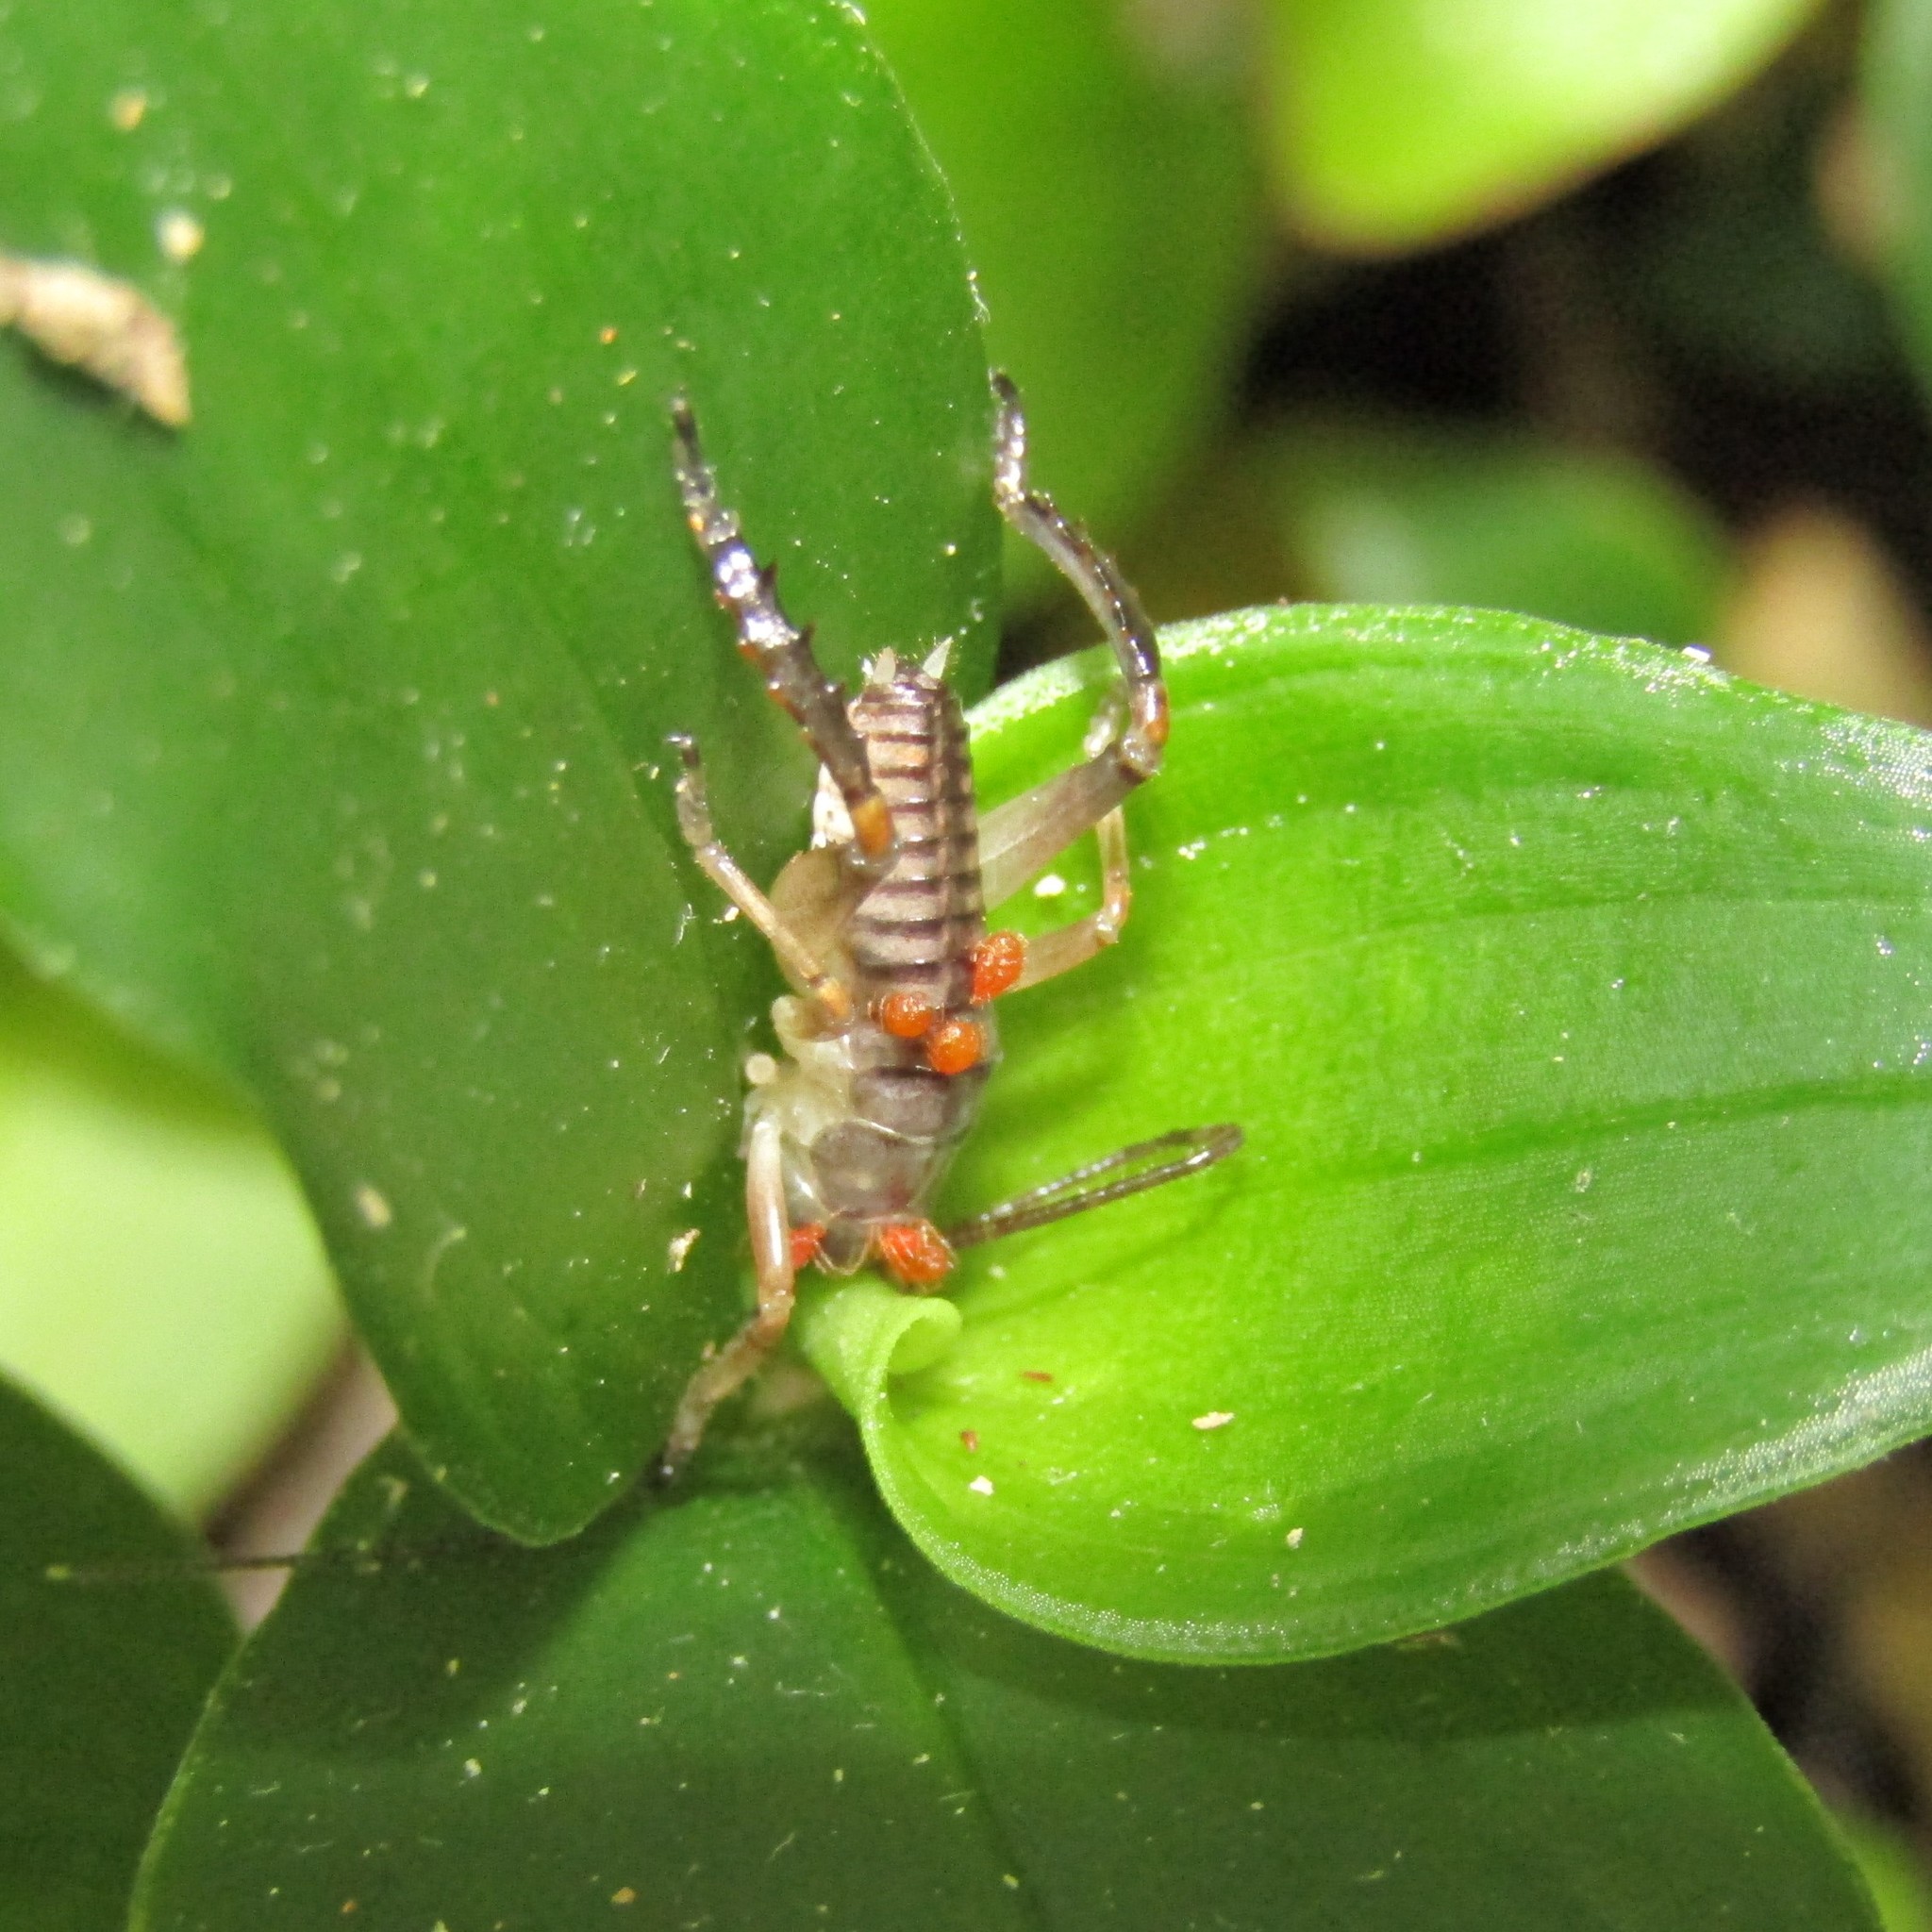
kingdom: Animalia
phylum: Arthropoda
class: Insecta
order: Orthoptera
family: Anostostomatidae
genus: Hemideina
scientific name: Hemideina crassidens
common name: Wellington tree weta
